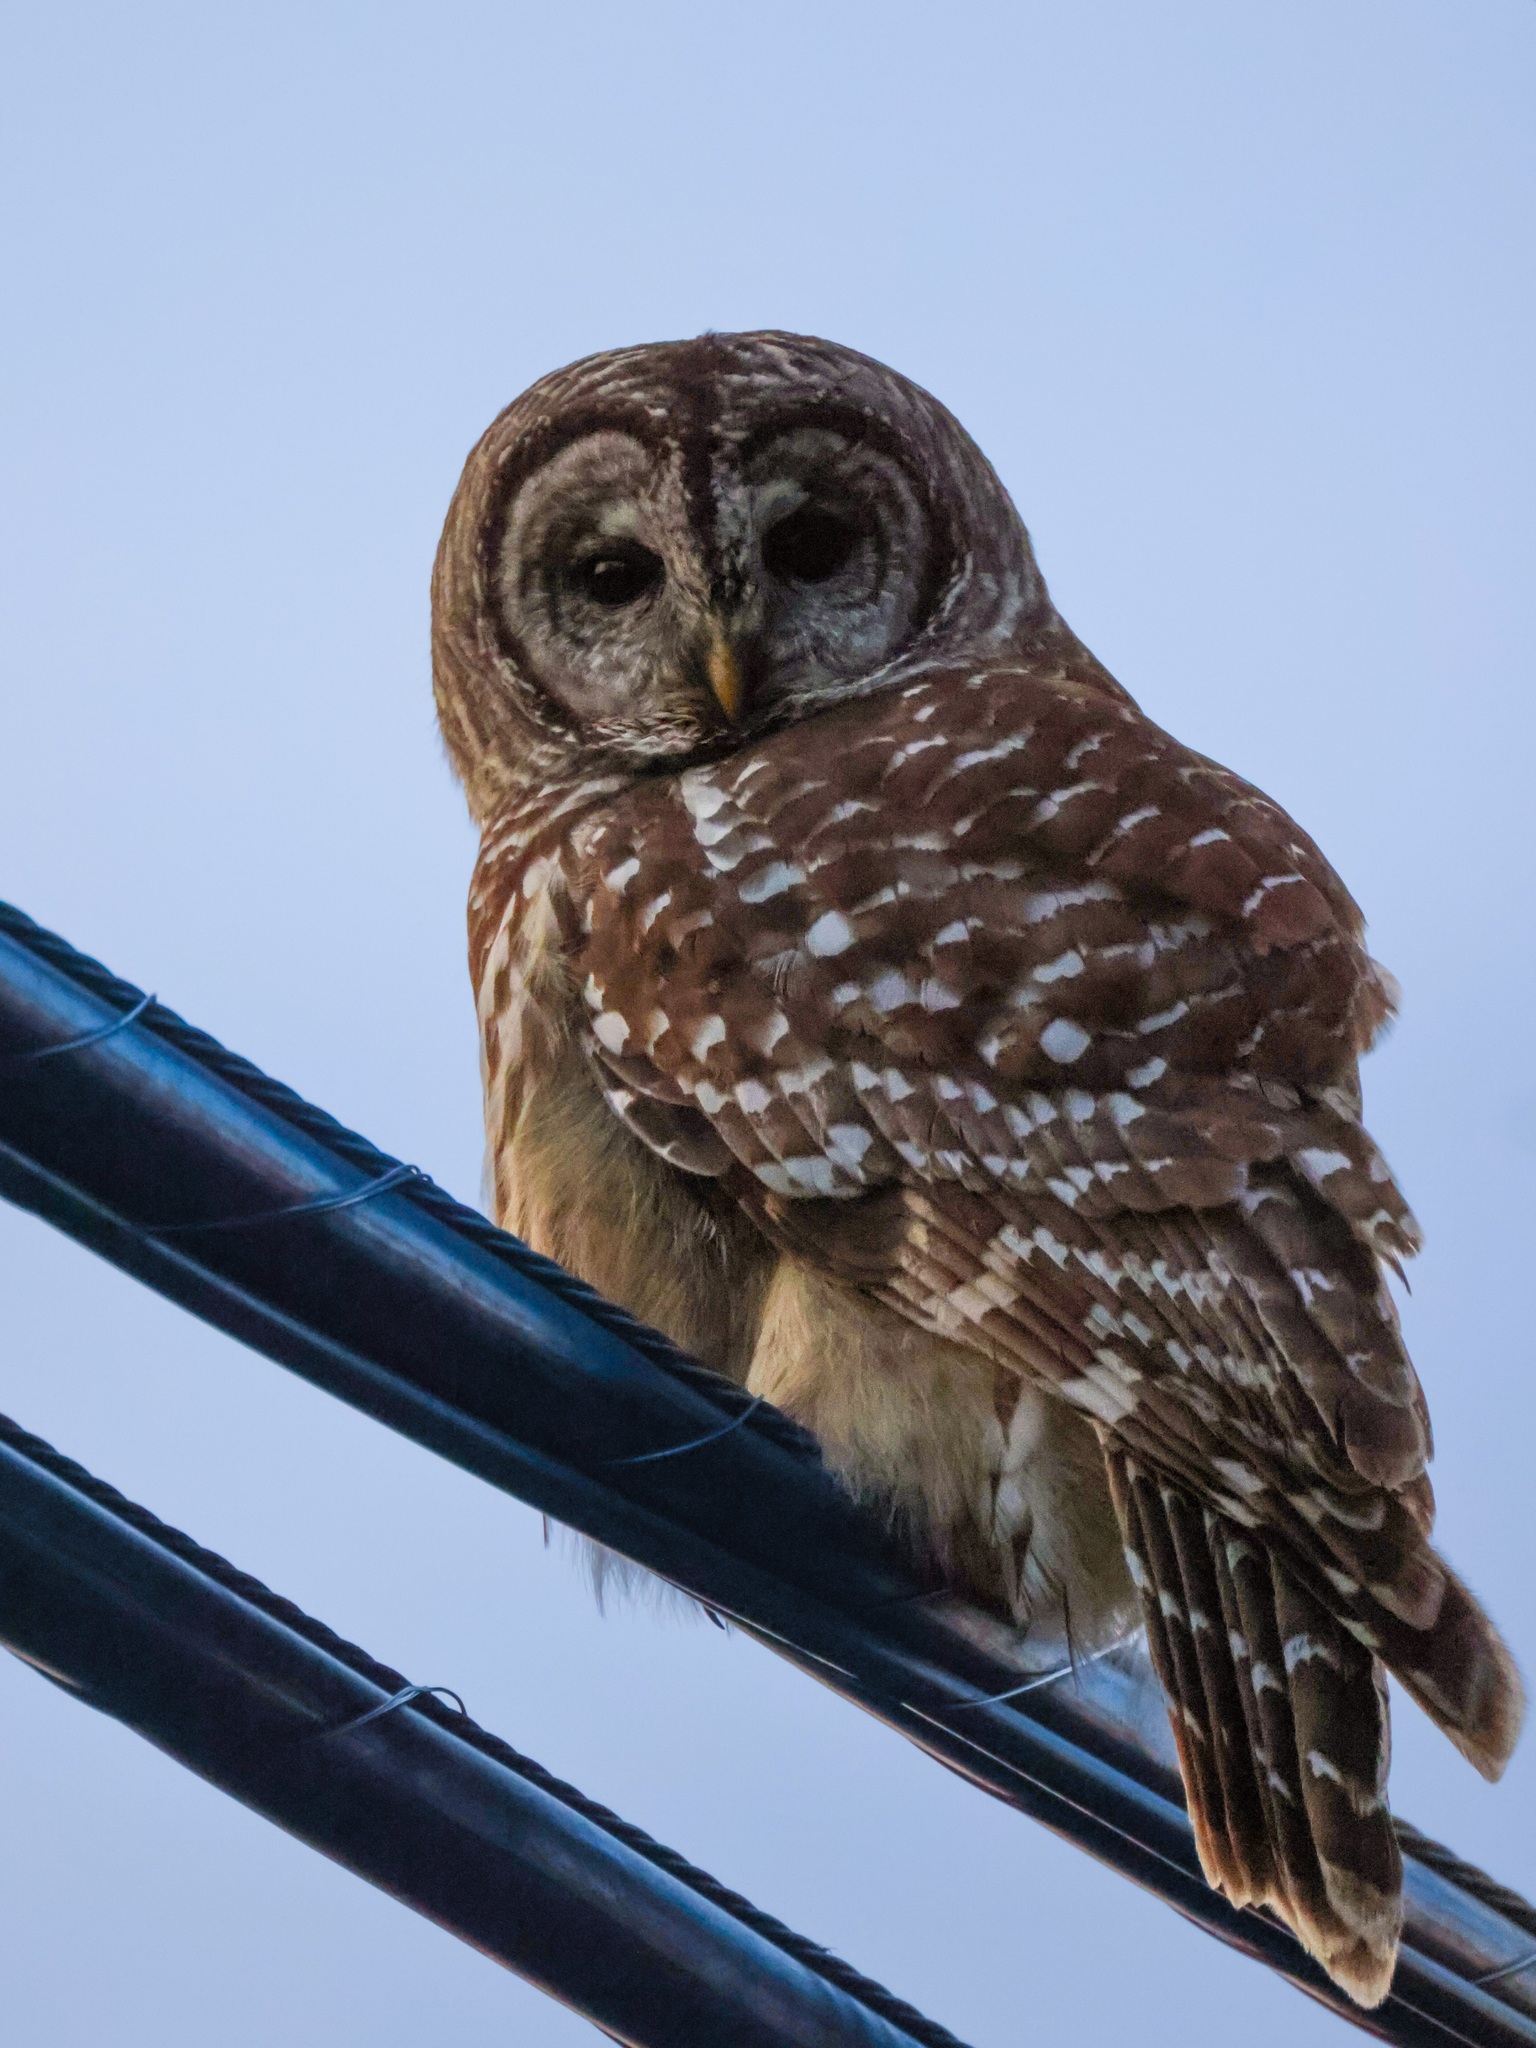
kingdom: Animalia
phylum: Chordata
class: Aves
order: Strigiformes
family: Strigidae
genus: Strix
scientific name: Strix varia
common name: Barred owl
